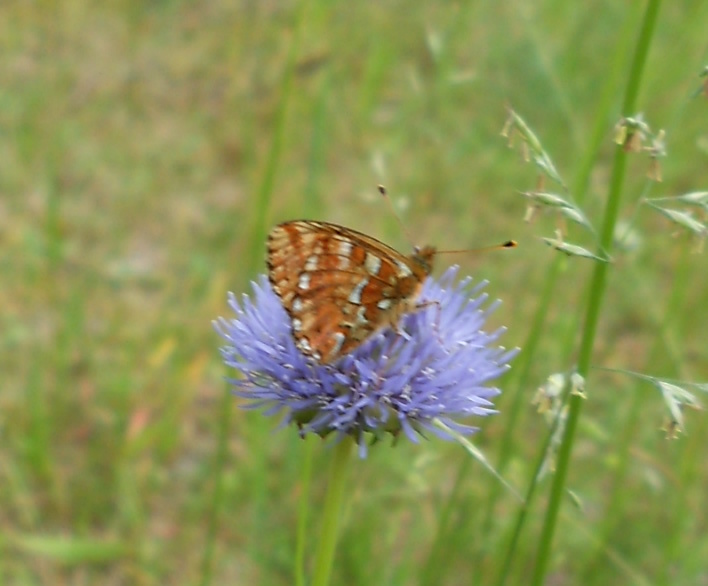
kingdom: Animalia
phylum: Arthropoda
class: Insecta
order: Lepidoptera
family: Nymphalidae
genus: Boloria
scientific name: Boloria aquilonaris
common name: Cranberry fritillary
